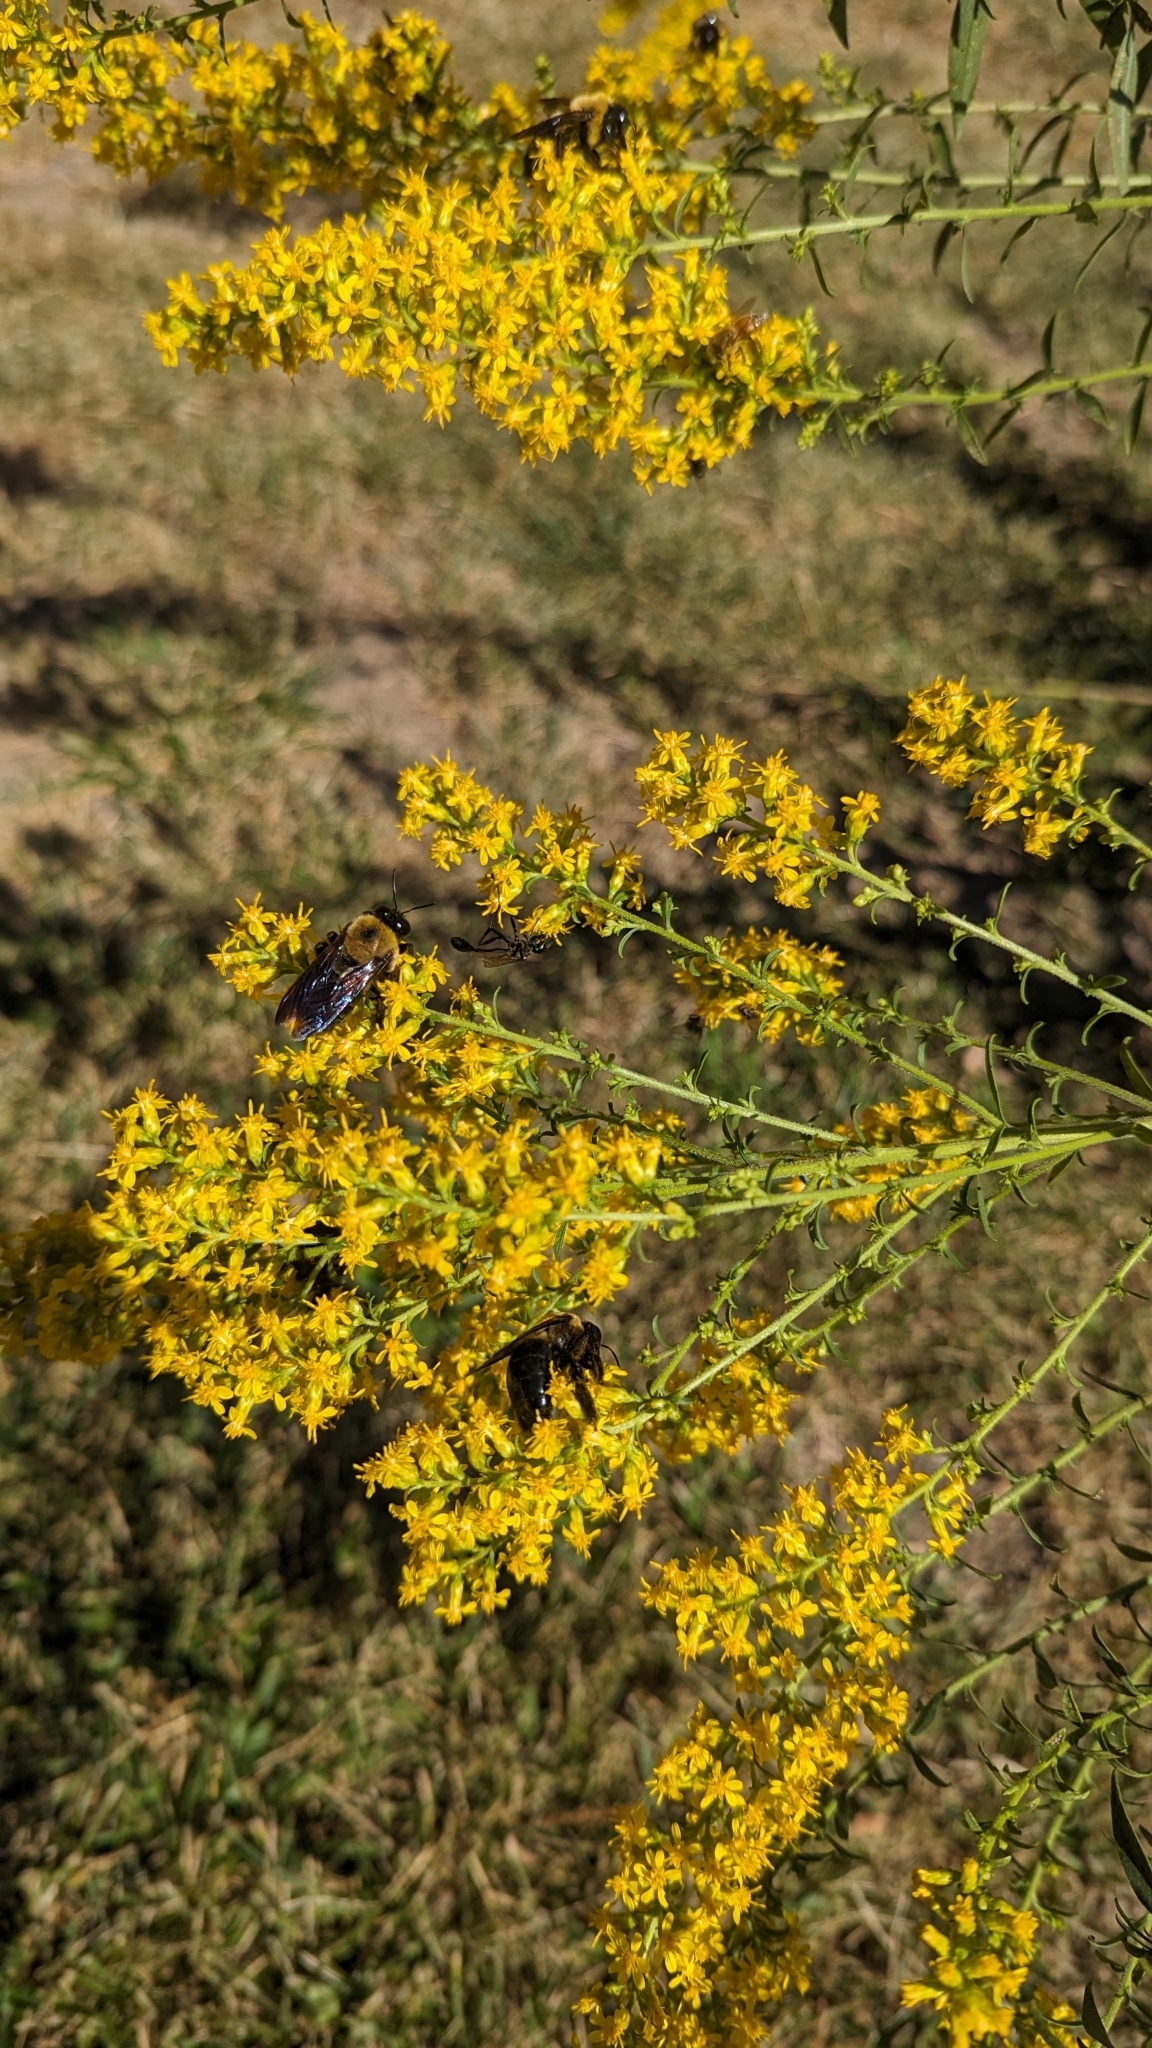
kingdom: Animalia
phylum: Arthropoda
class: Insecta
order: Hymenoptera
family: Apidae
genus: Xylocopa
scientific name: Xylocopa virginica
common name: Carpenter bee
